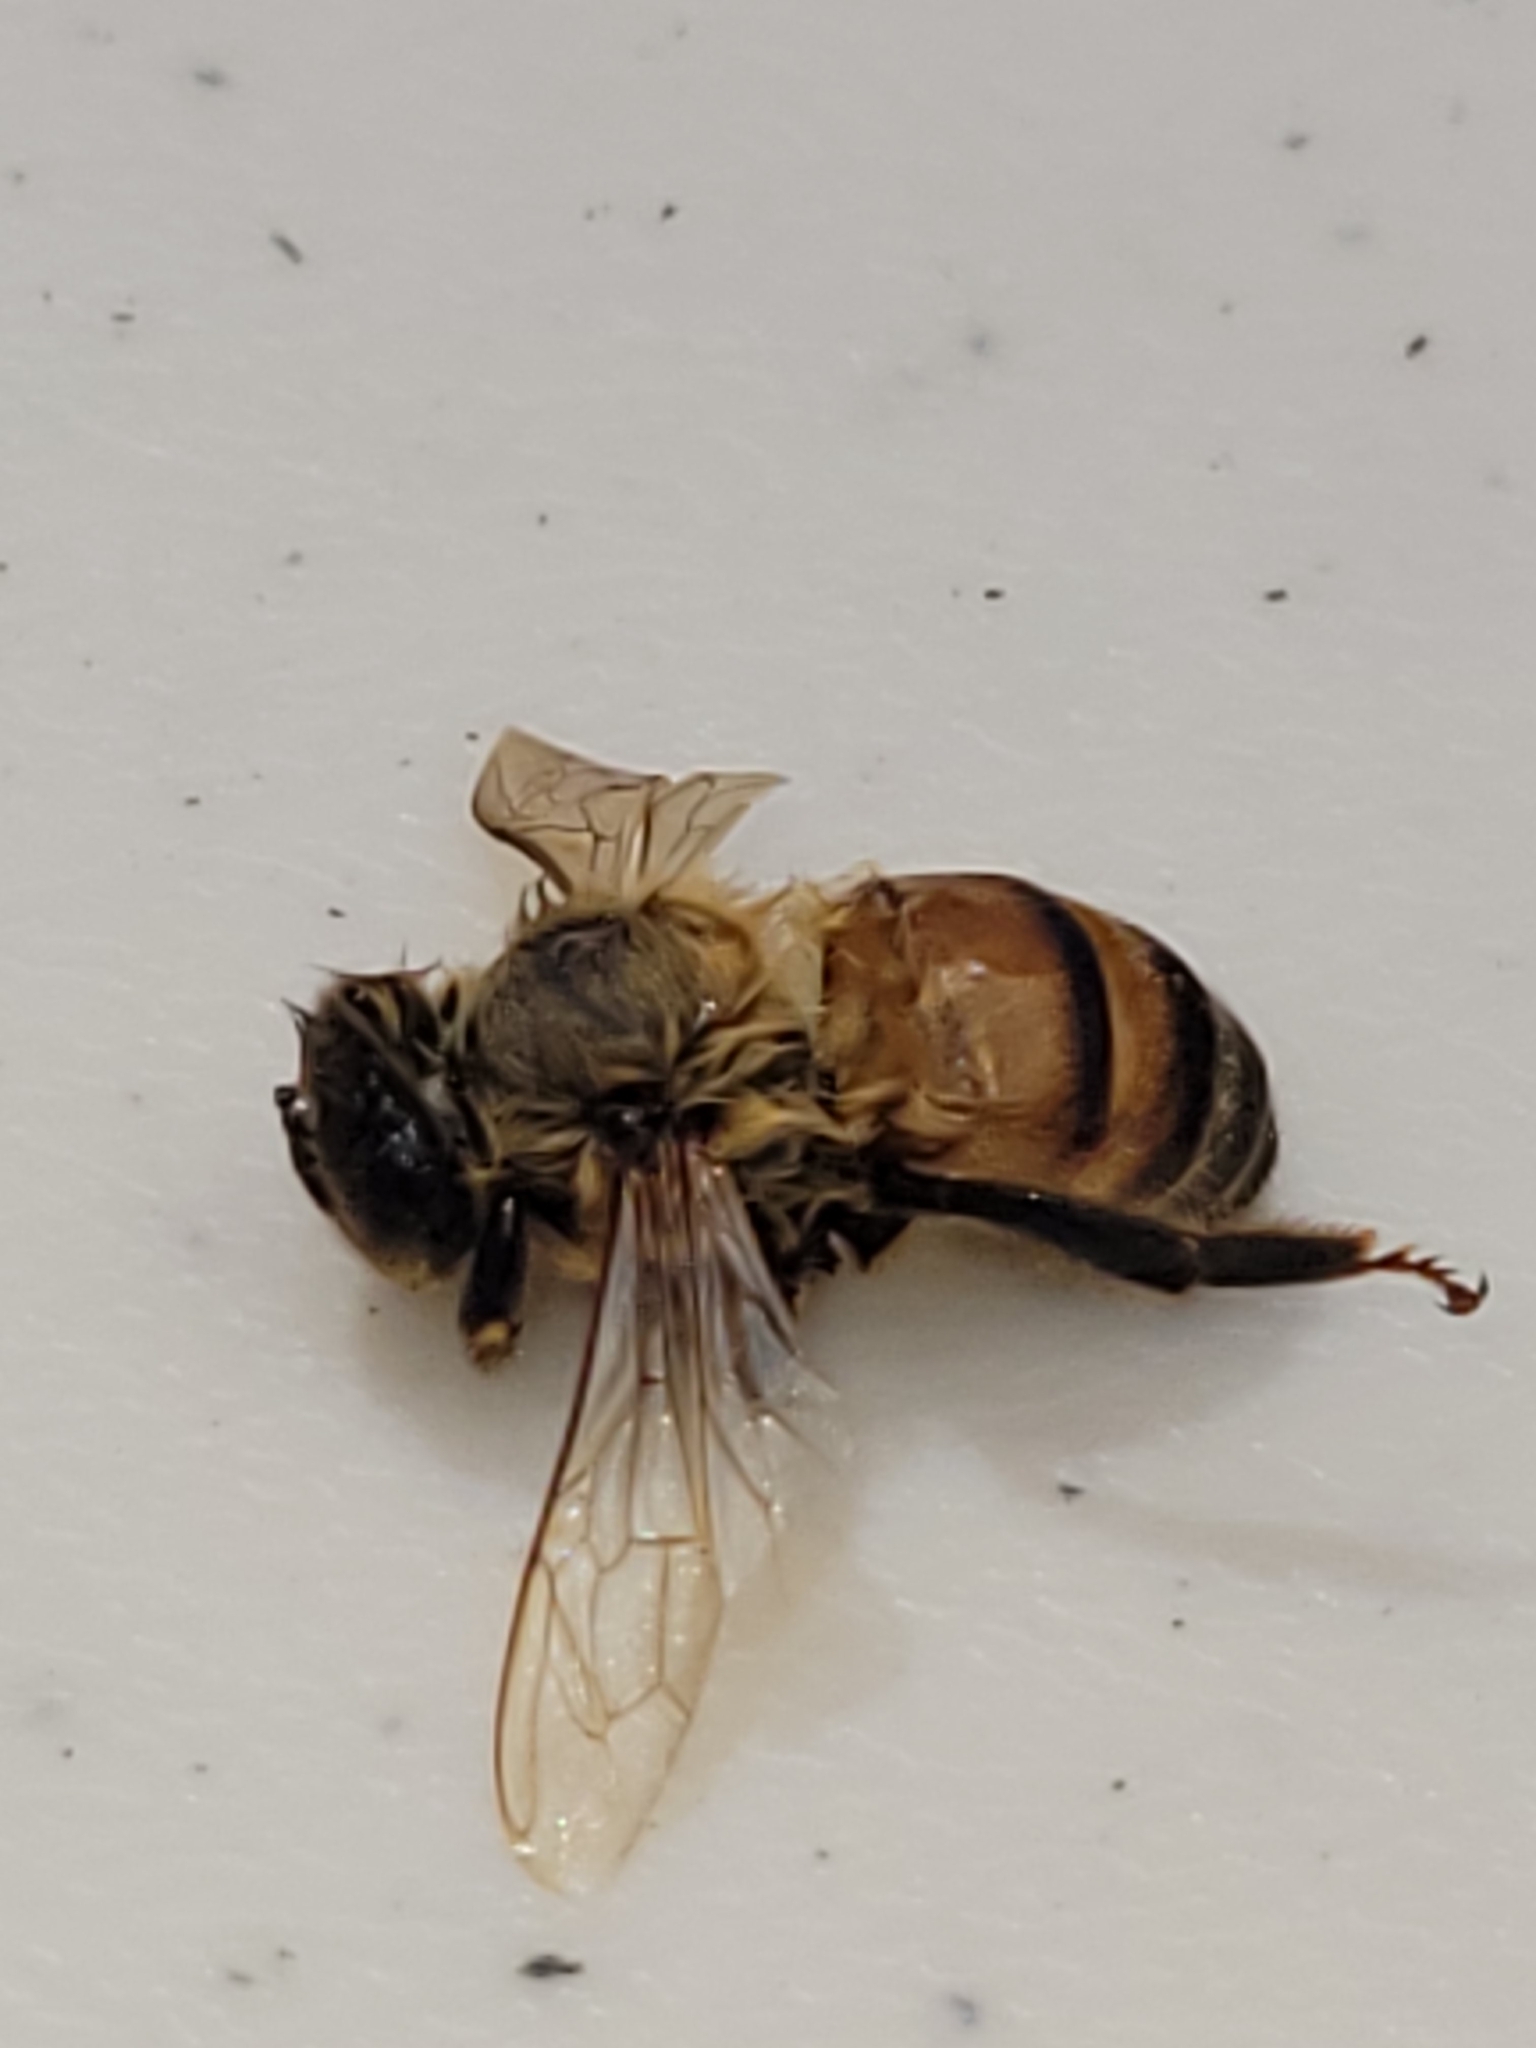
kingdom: Animalia
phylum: Arthropoda
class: Insecta
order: Hymenoptera
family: Apidae
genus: Apis
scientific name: Apis mellifera
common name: Honey bee
